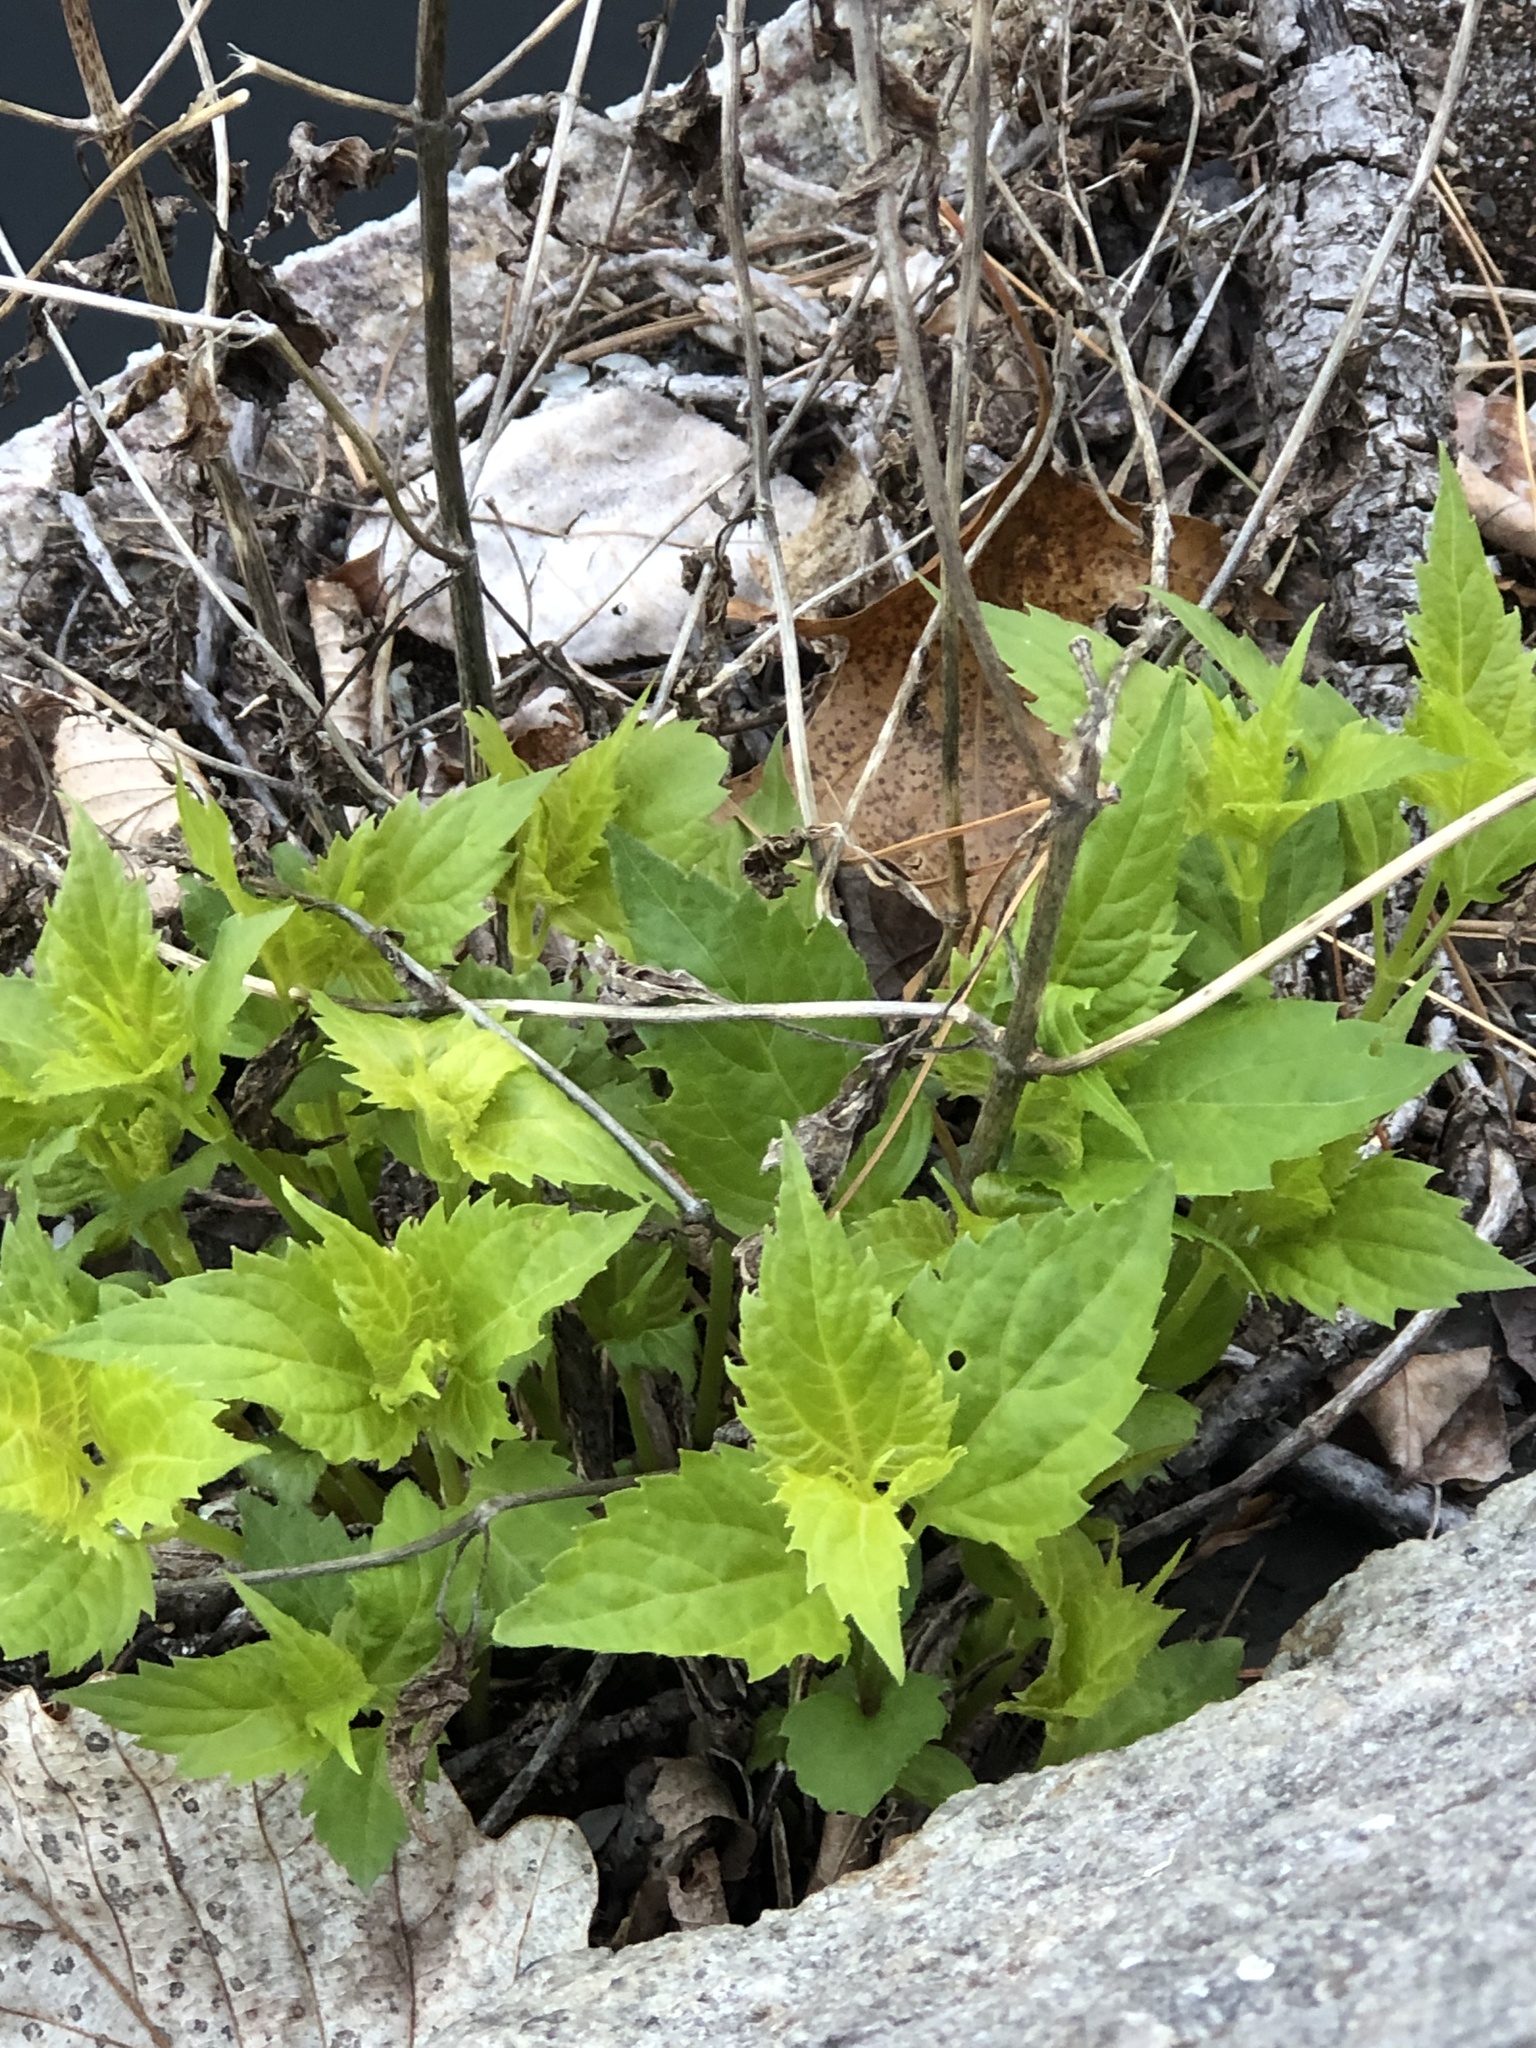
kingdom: Plantae
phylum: Tracheophyta
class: Magnoliopsida
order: Asterales
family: Asteraceae
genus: Ageratina
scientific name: Ageratina altissima
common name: White snakeroot
